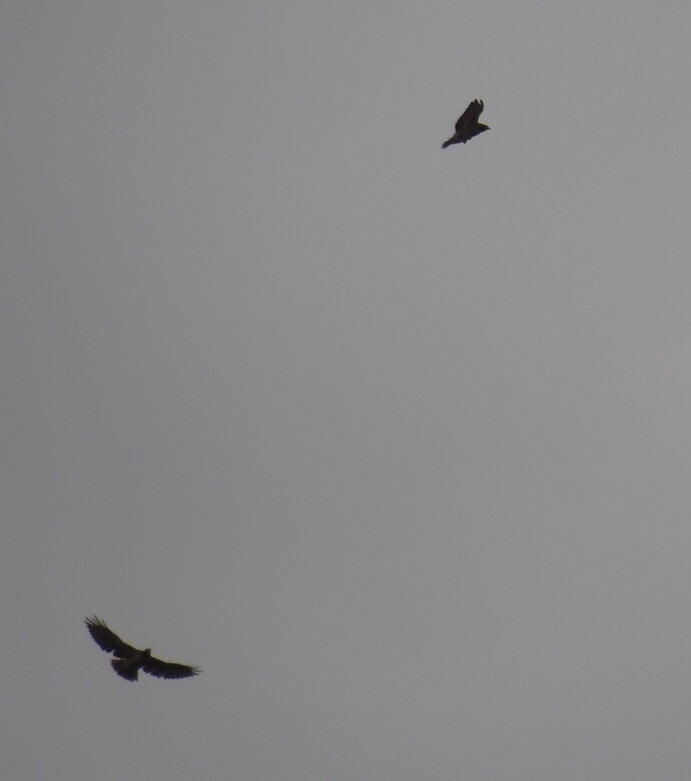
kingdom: Animalia
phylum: Chordata
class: Aves
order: Accipitriformes
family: Accipitridae
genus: Buteo
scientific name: Buteo jamaicensis
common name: Red-tailed hawk
